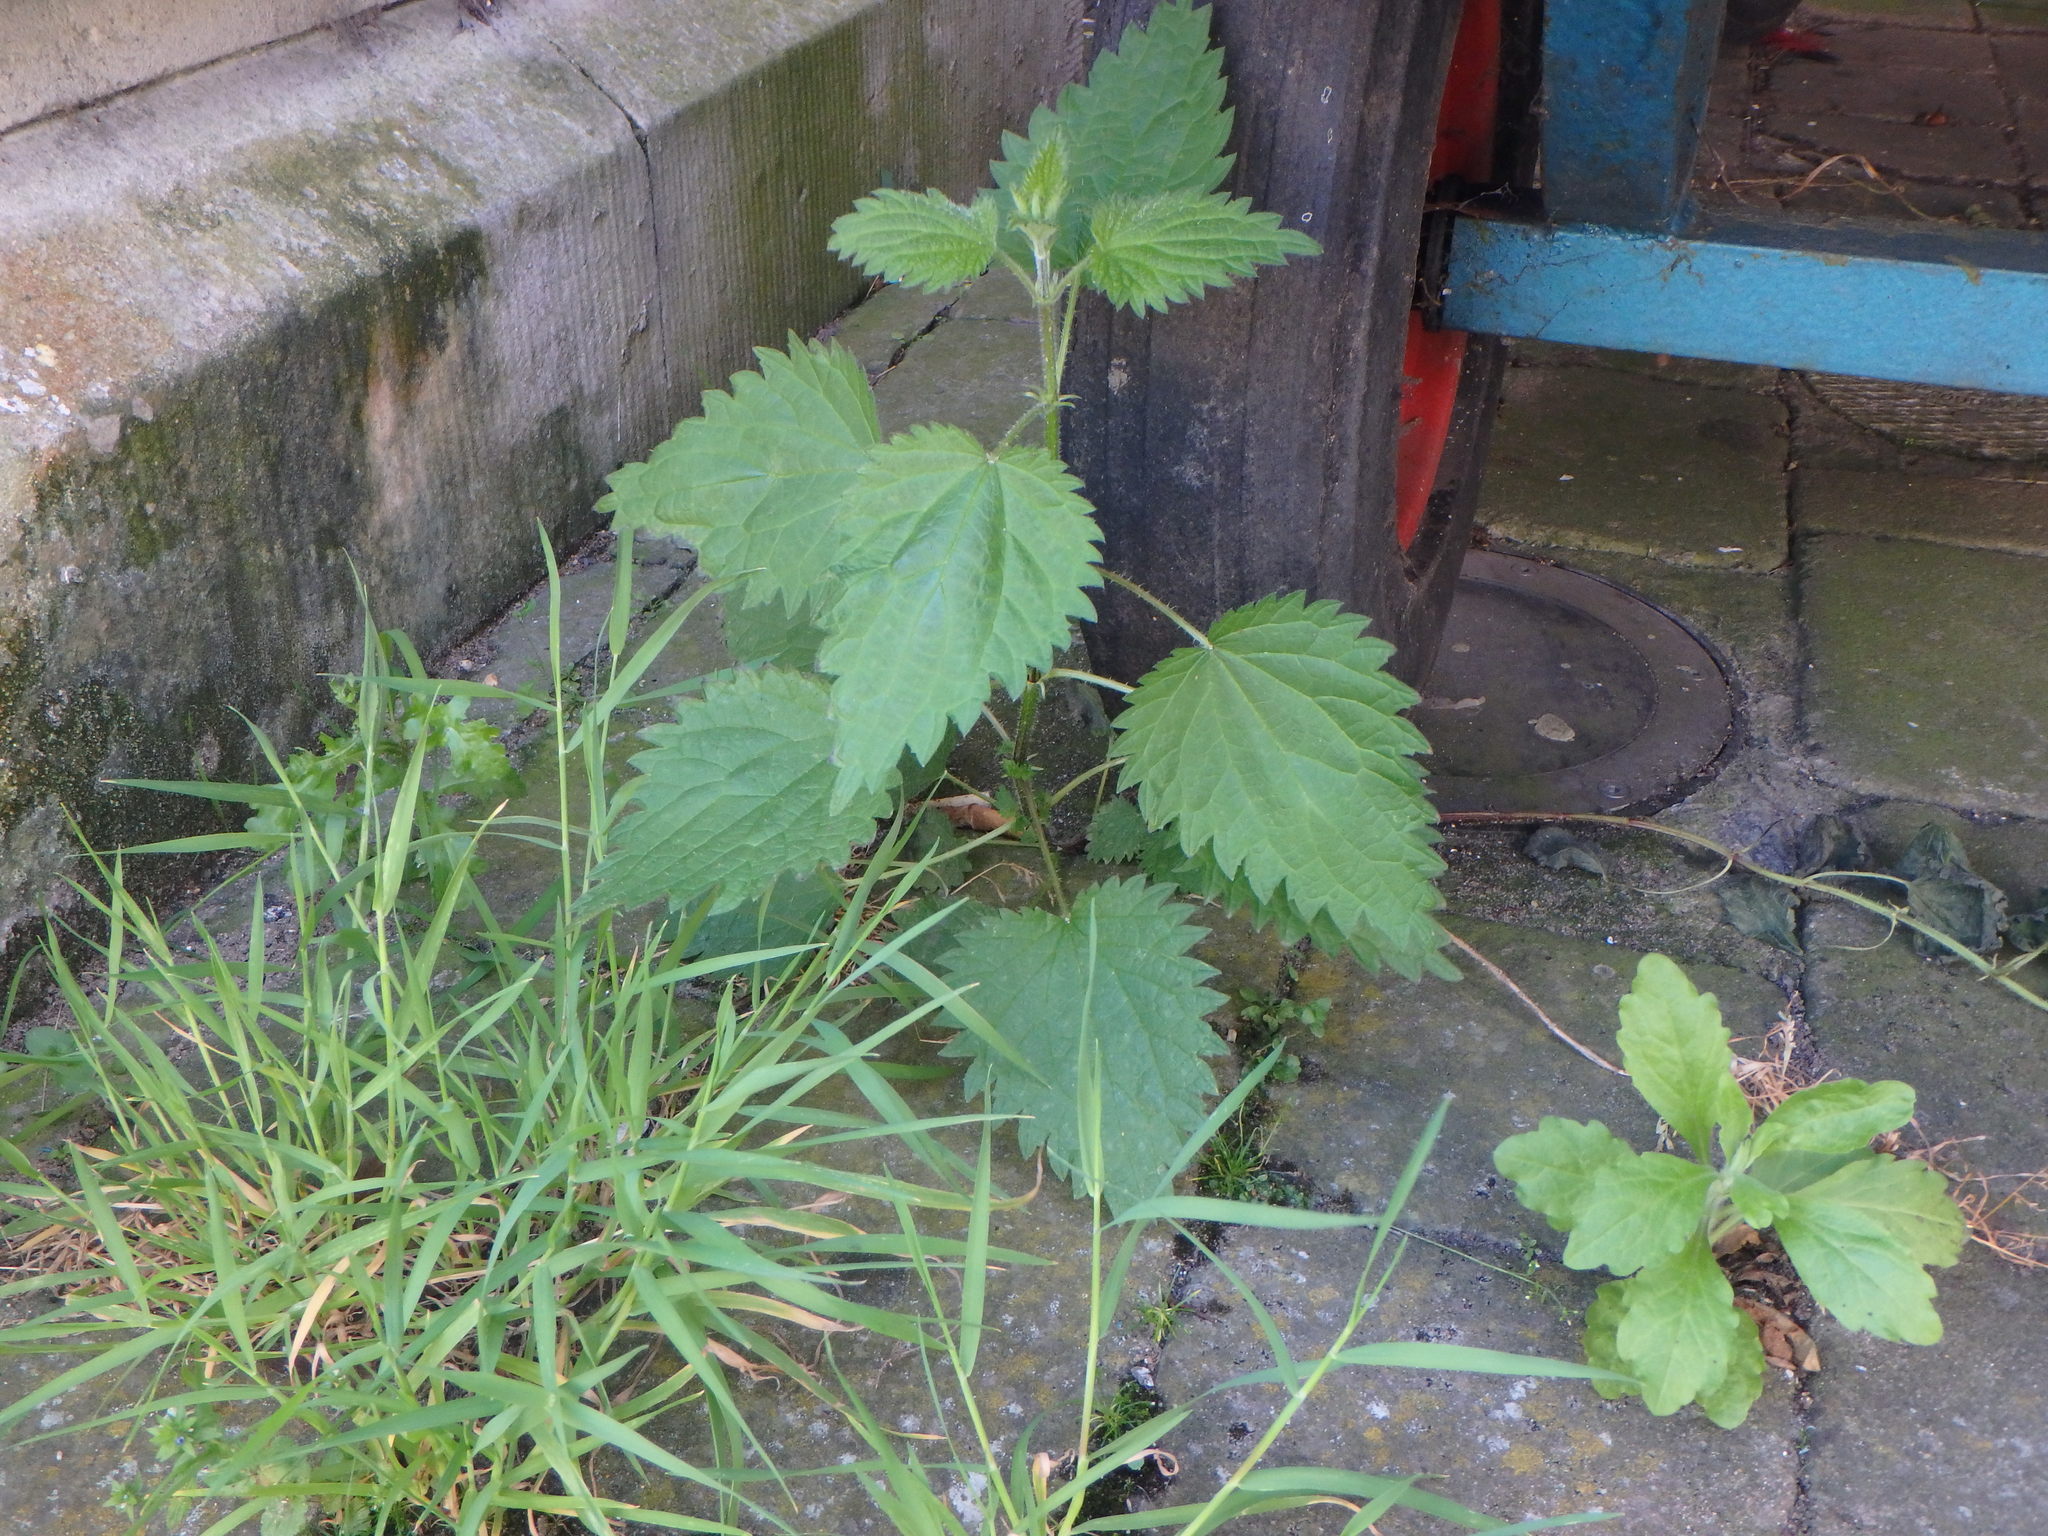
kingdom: Plantae
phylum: Tracheophyta
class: Magnoliopsida
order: Rosales
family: Urticaceae
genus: Urtica
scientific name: Urtica dioica
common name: Common nettle
